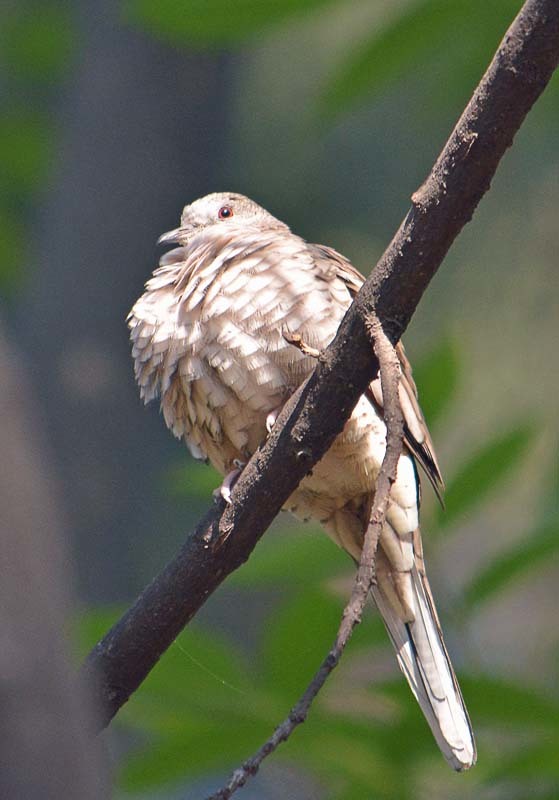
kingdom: Animalia
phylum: Chordata
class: Aves
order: Columbiformes
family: Columbidae
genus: Columbina
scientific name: Columbina inca
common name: Inca dove
